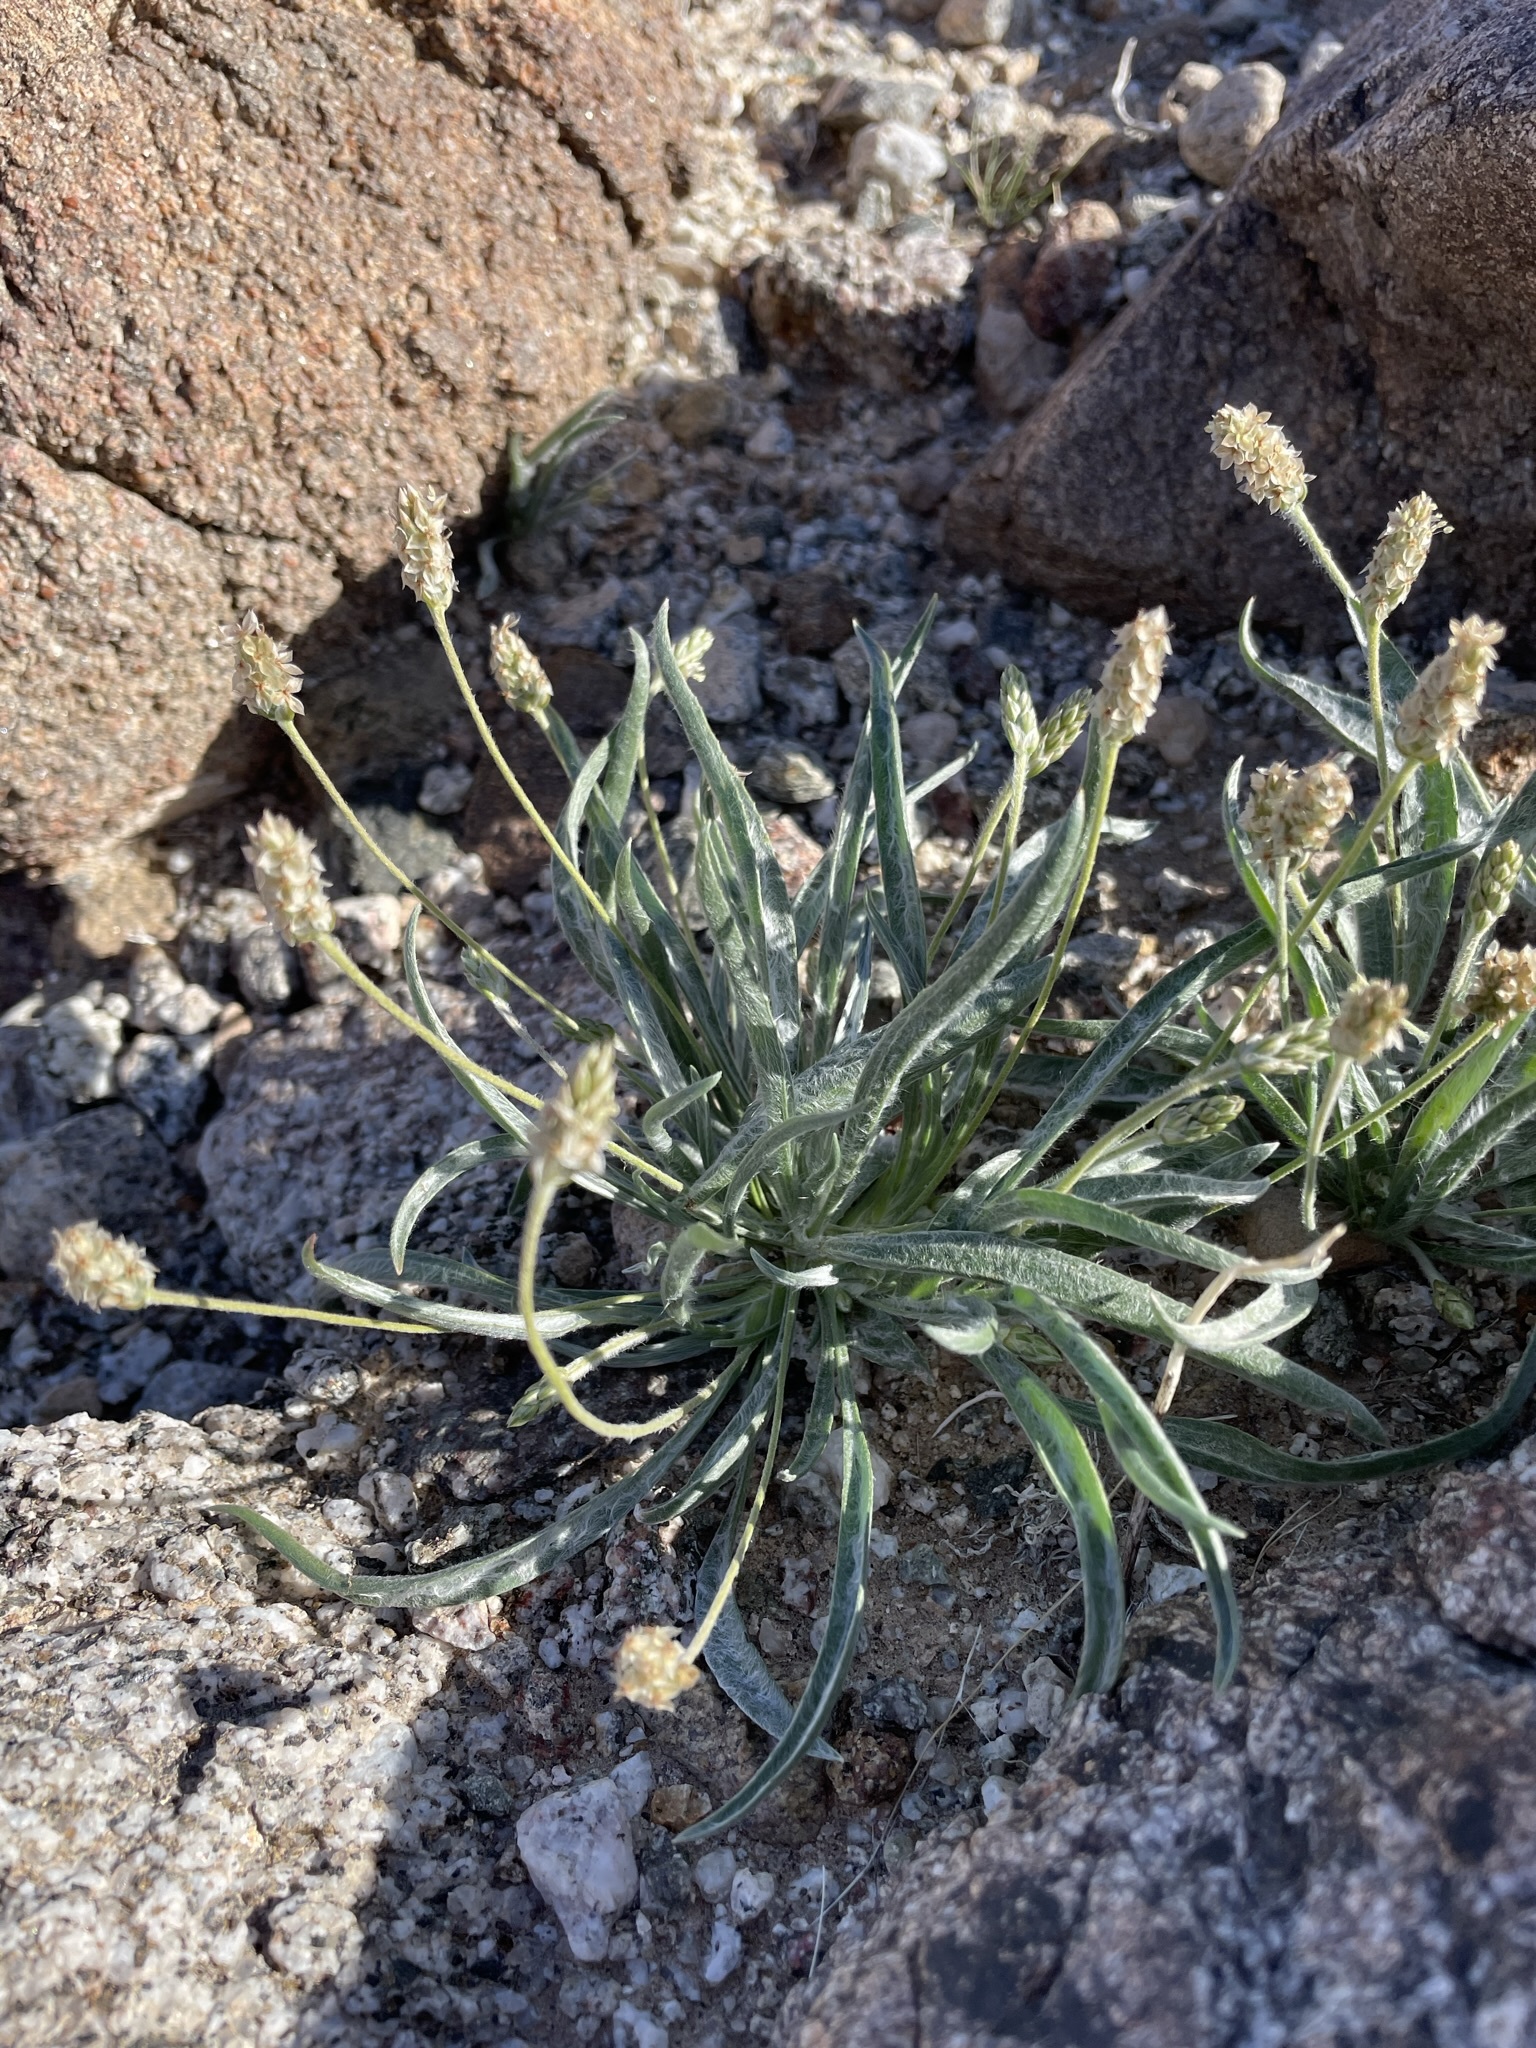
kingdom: Plantae
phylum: Tracheophyta
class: Magnoliopsida
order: Lamiales
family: Plantaginaceae
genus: Plantago
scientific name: Plantago ovata
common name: Blond plantain
